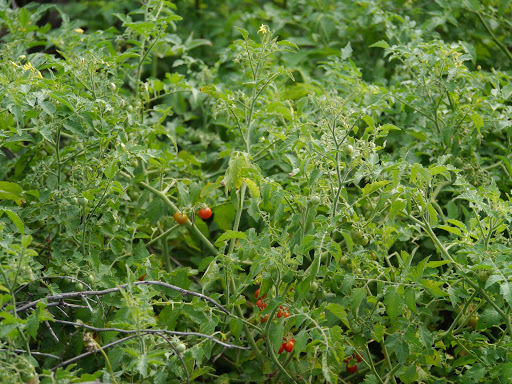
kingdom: Plantae
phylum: Tracheophyta
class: Magnoliopsida
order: Solanales
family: Solanaceae
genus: Solanum
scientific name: Solanum lycopersicum
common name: Garden tomato
